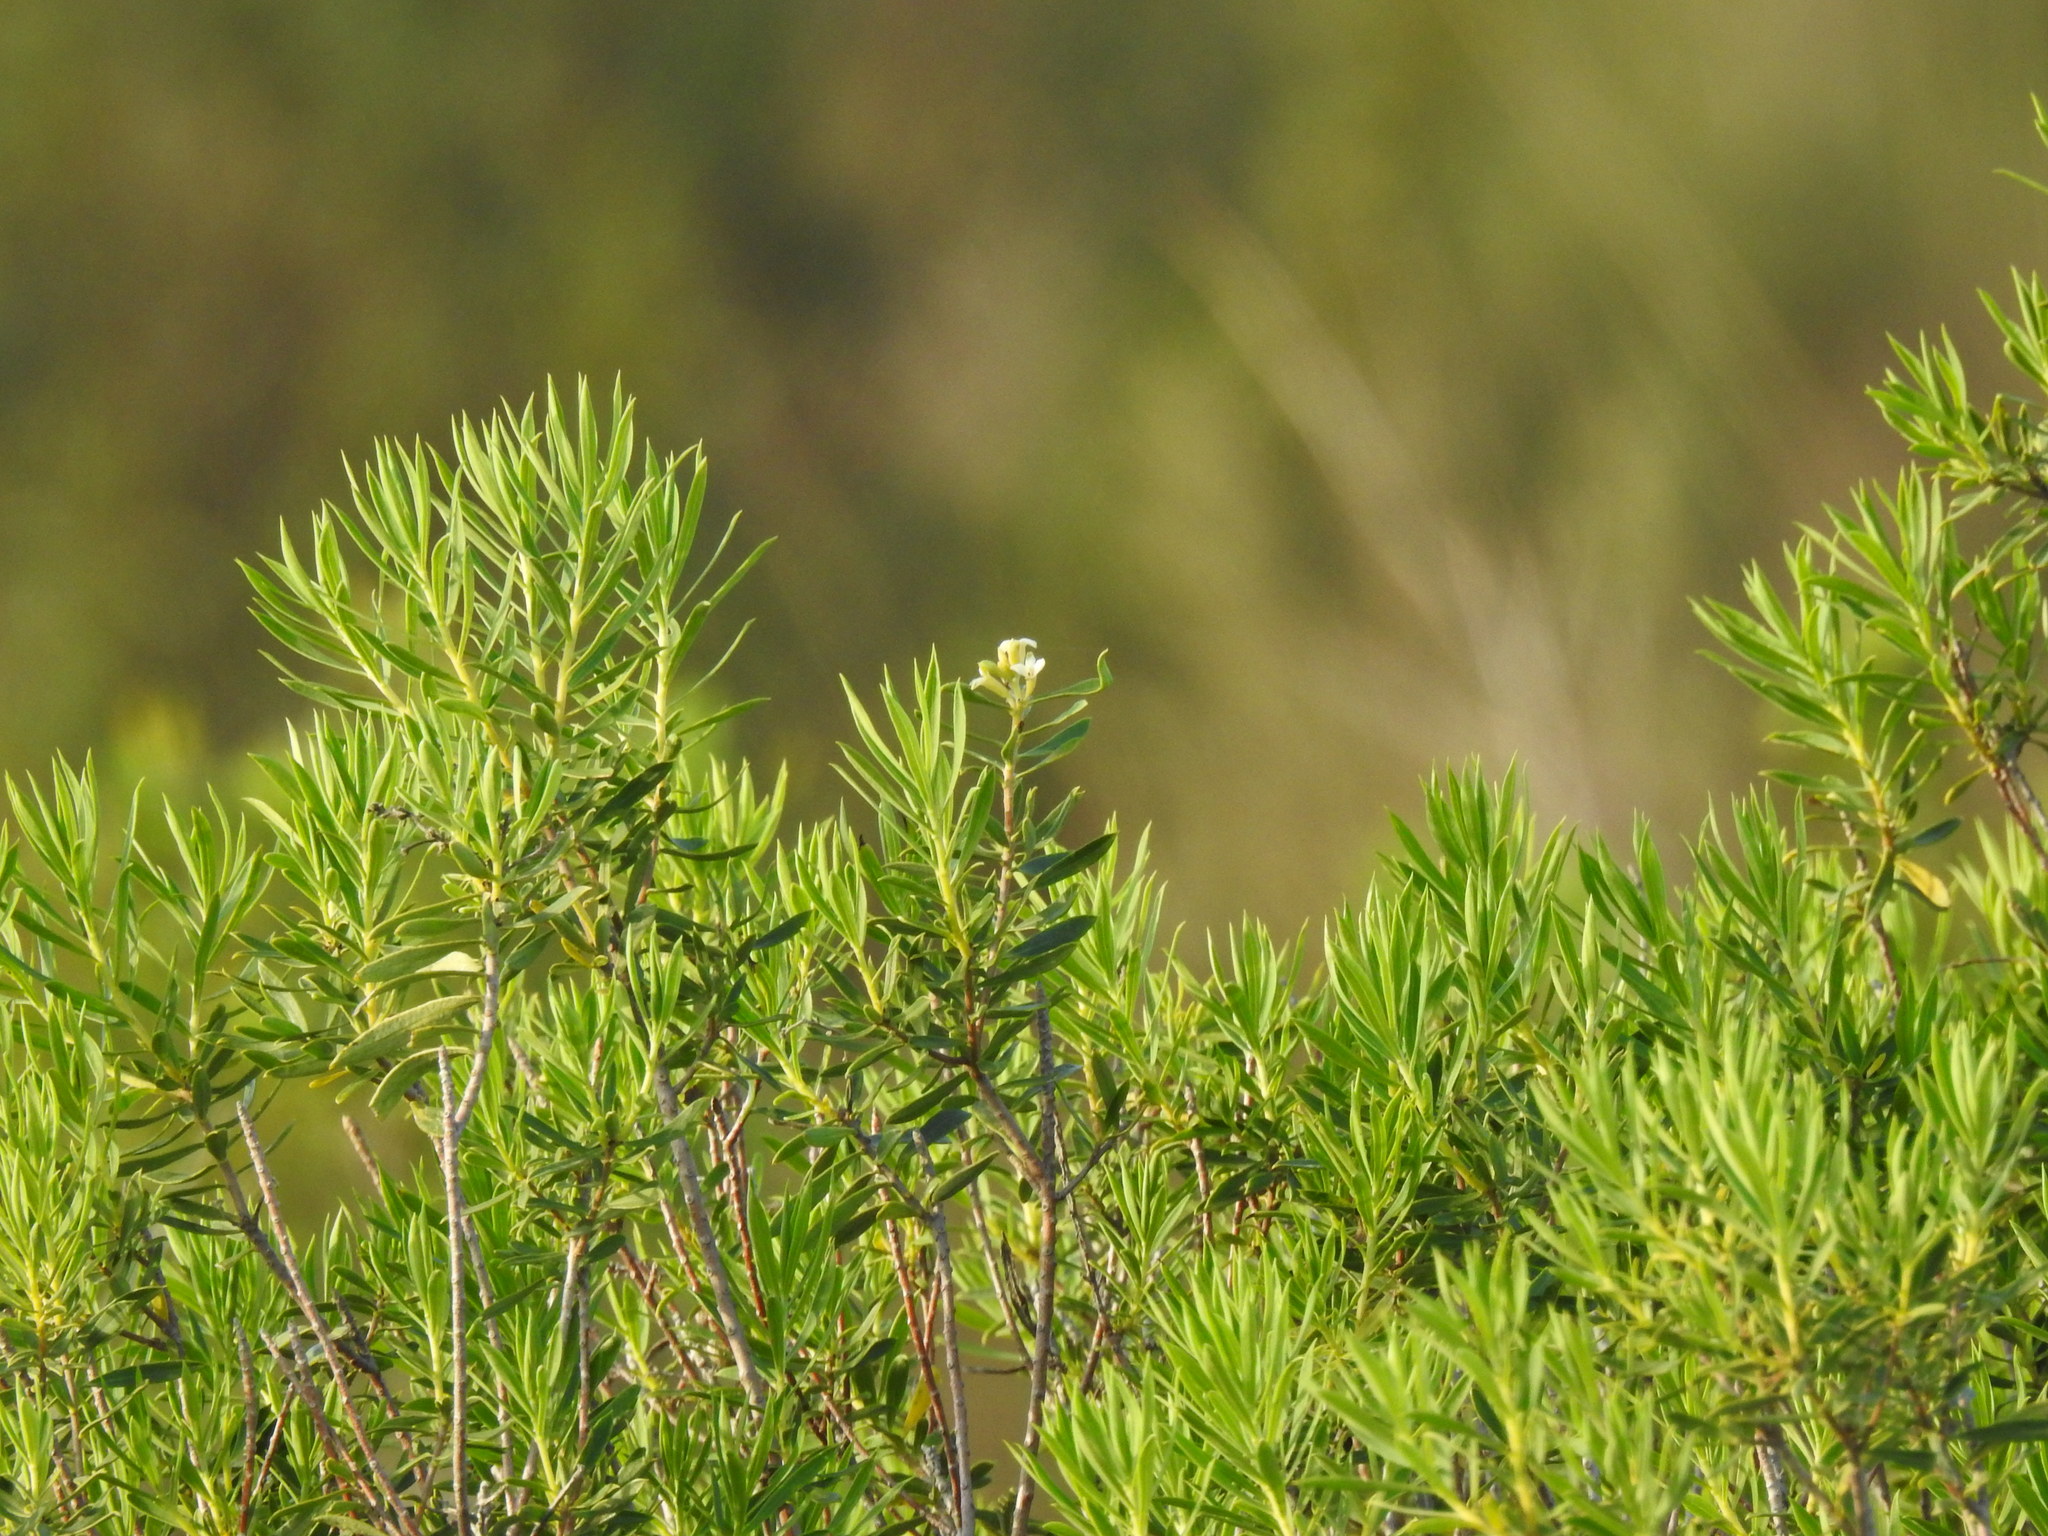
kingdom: Plantae
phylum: Tracheophyta
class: Magnoliopsida
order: Malvales
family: Thymelaeaceae
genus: Daphne
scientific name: Daphne gnidium
